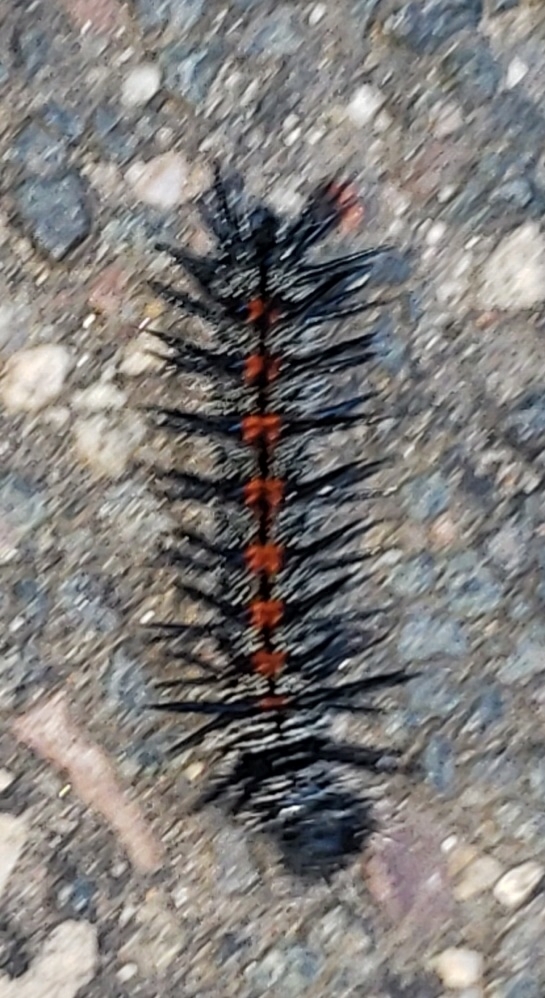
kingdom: Animalia
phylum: Arthropoda
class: Insecta
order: Lepidoptera
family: Nymphalidae
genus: Nymphalis
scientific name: Nymphalis antiopa
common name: Camberwell beauty
